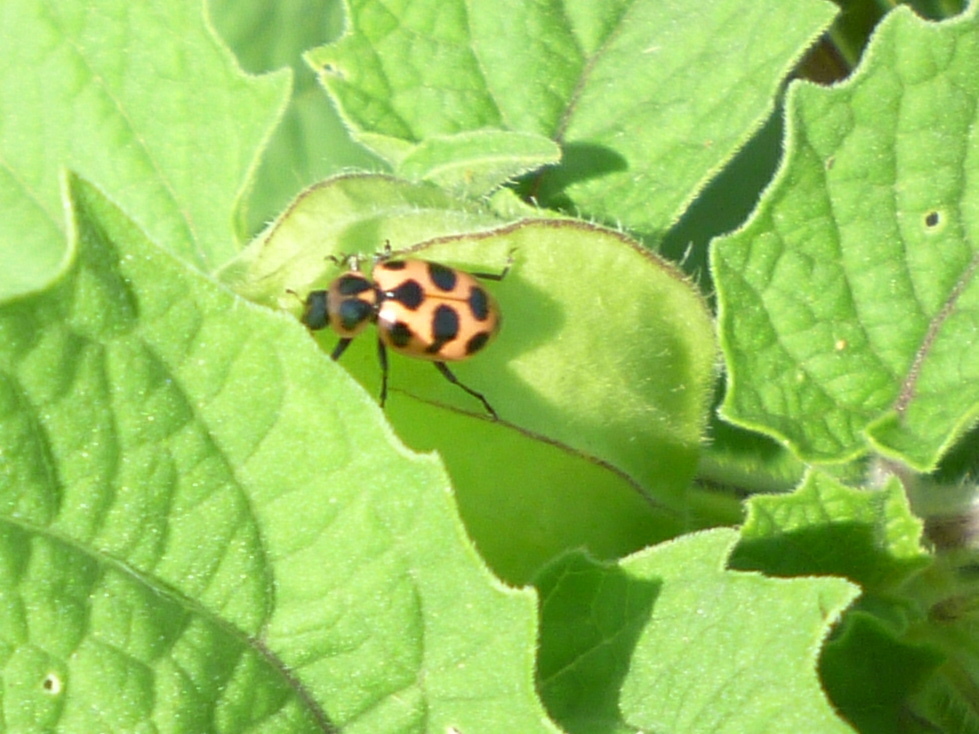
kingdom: Animalia
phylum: Arthropoda
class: Insecta
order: Coleoptera
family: Coccinellidae
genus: Coleomegilla
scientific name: Coleomegilla maculata
